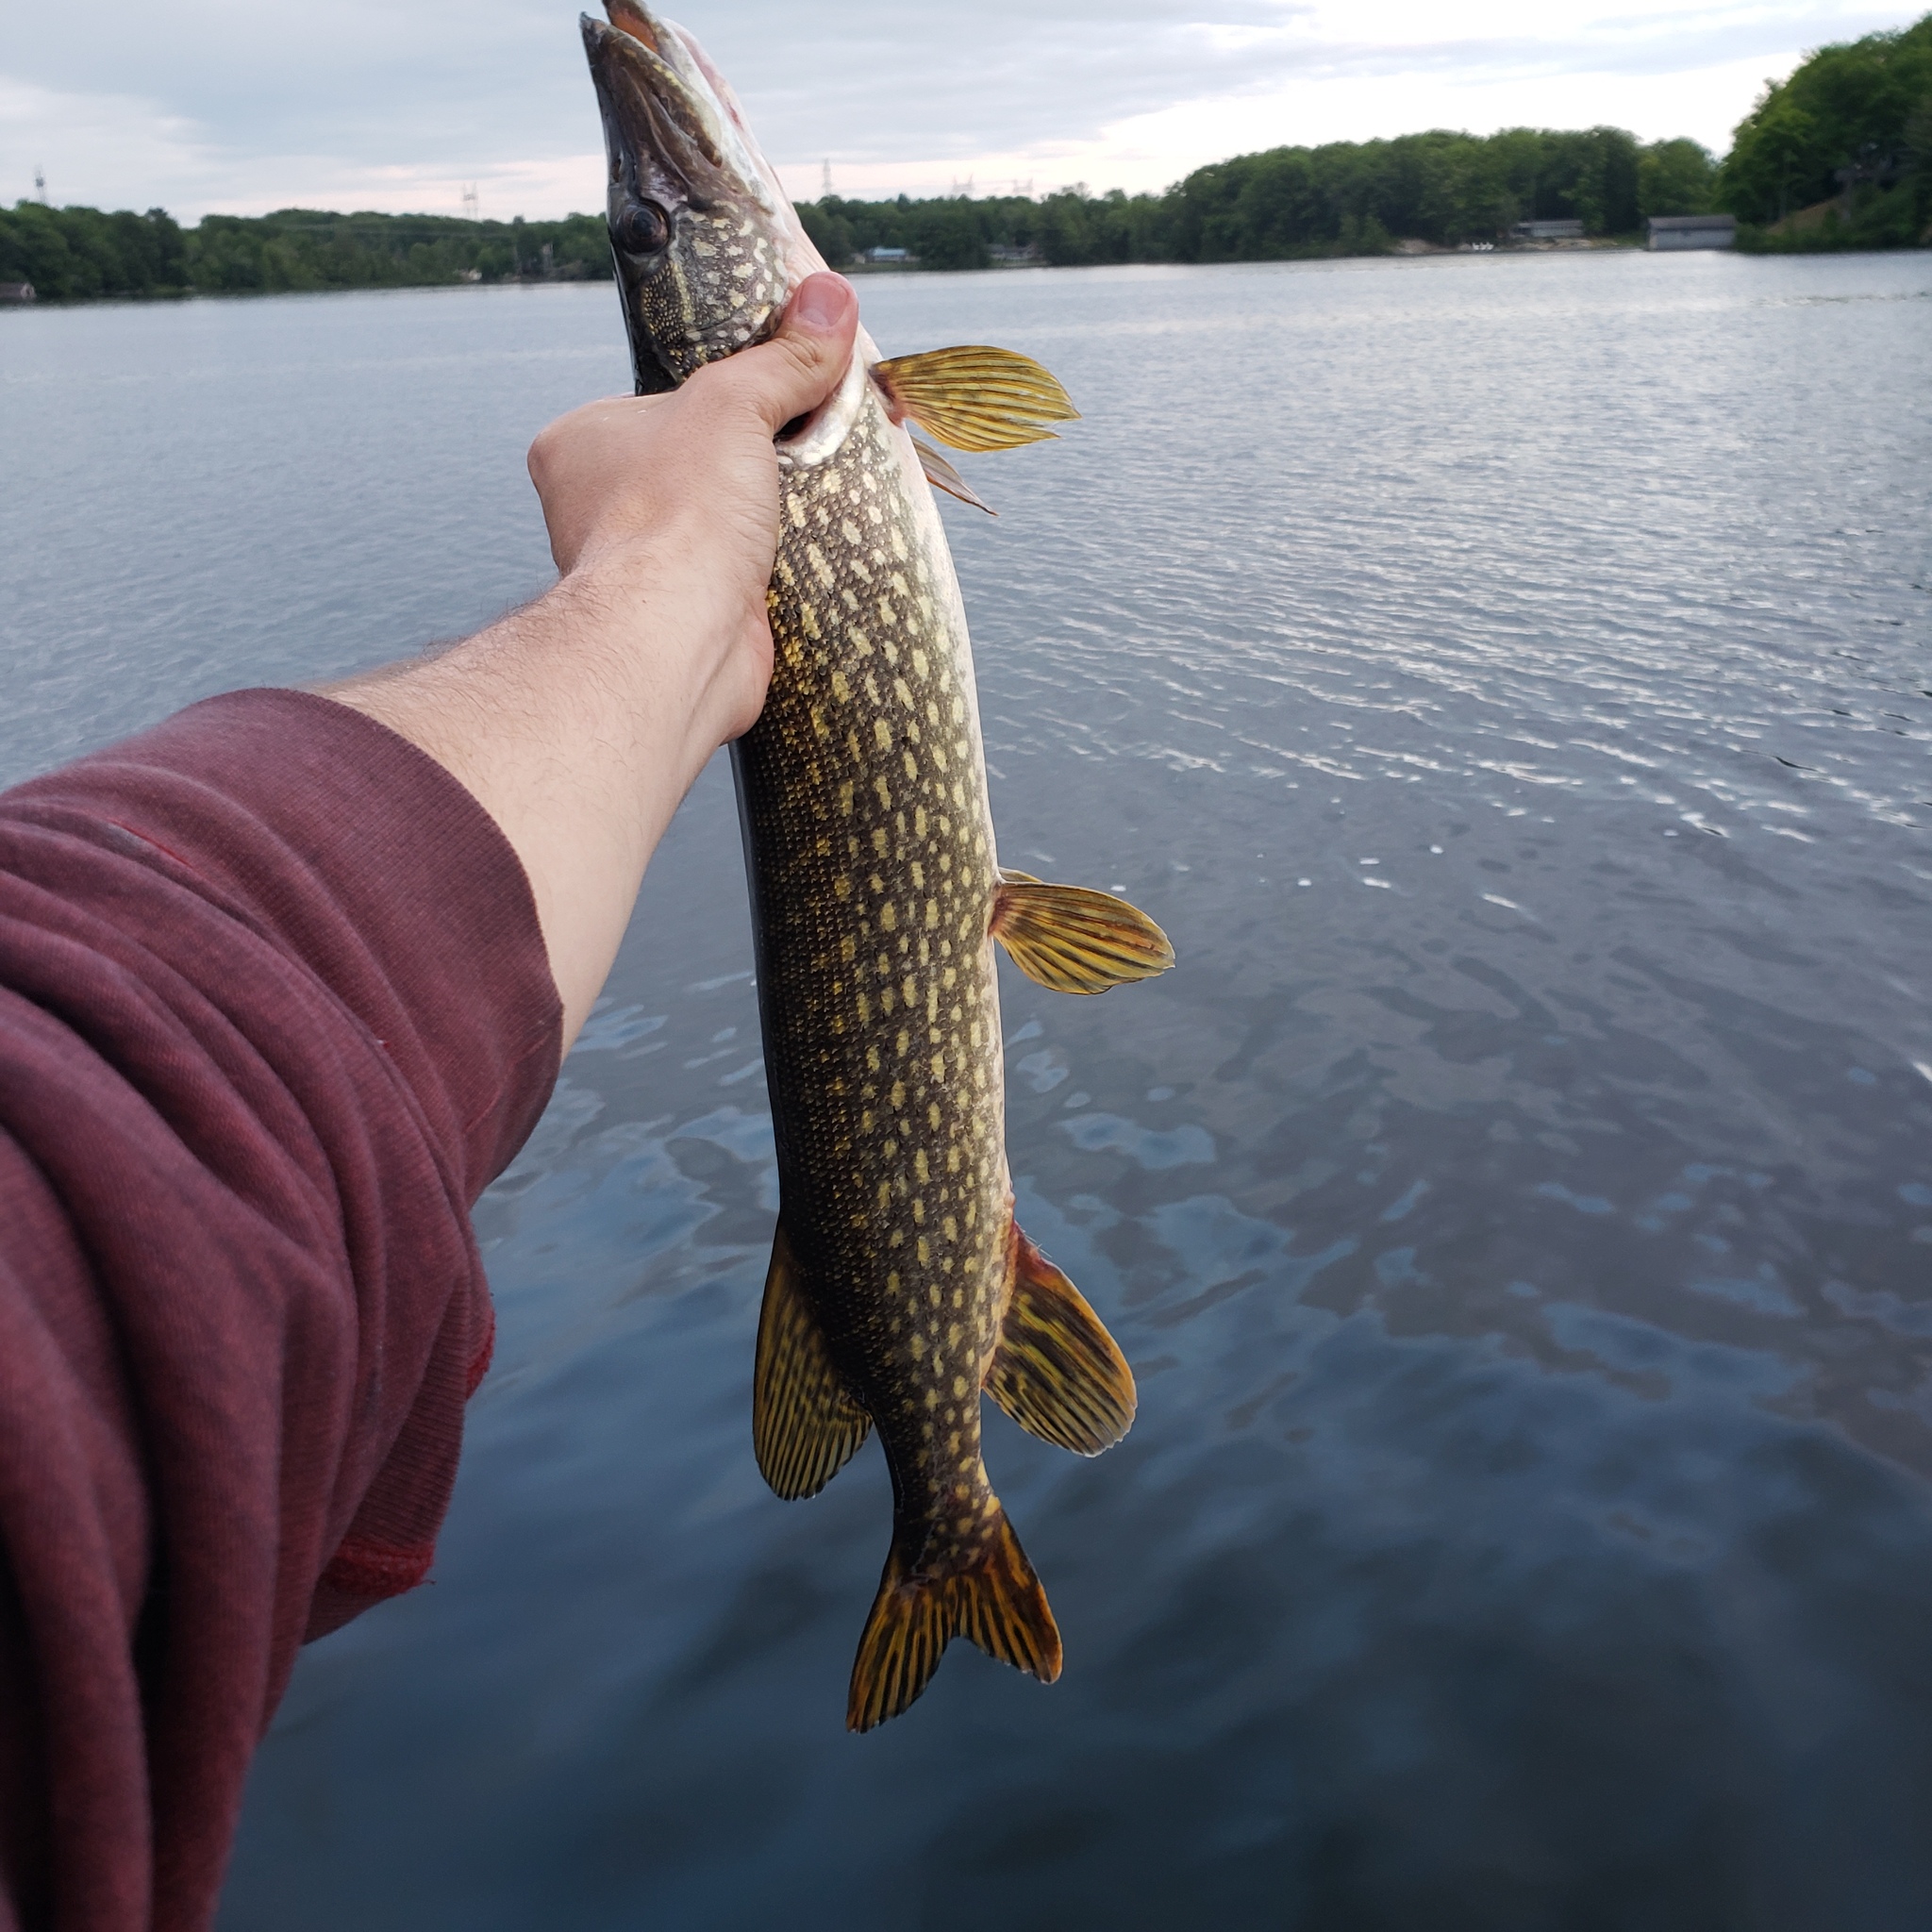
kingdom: Animalia
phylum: Chordata
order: Esociformes
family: Esocidae
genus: Esox
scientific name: Esox lucius
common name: Northern pike
